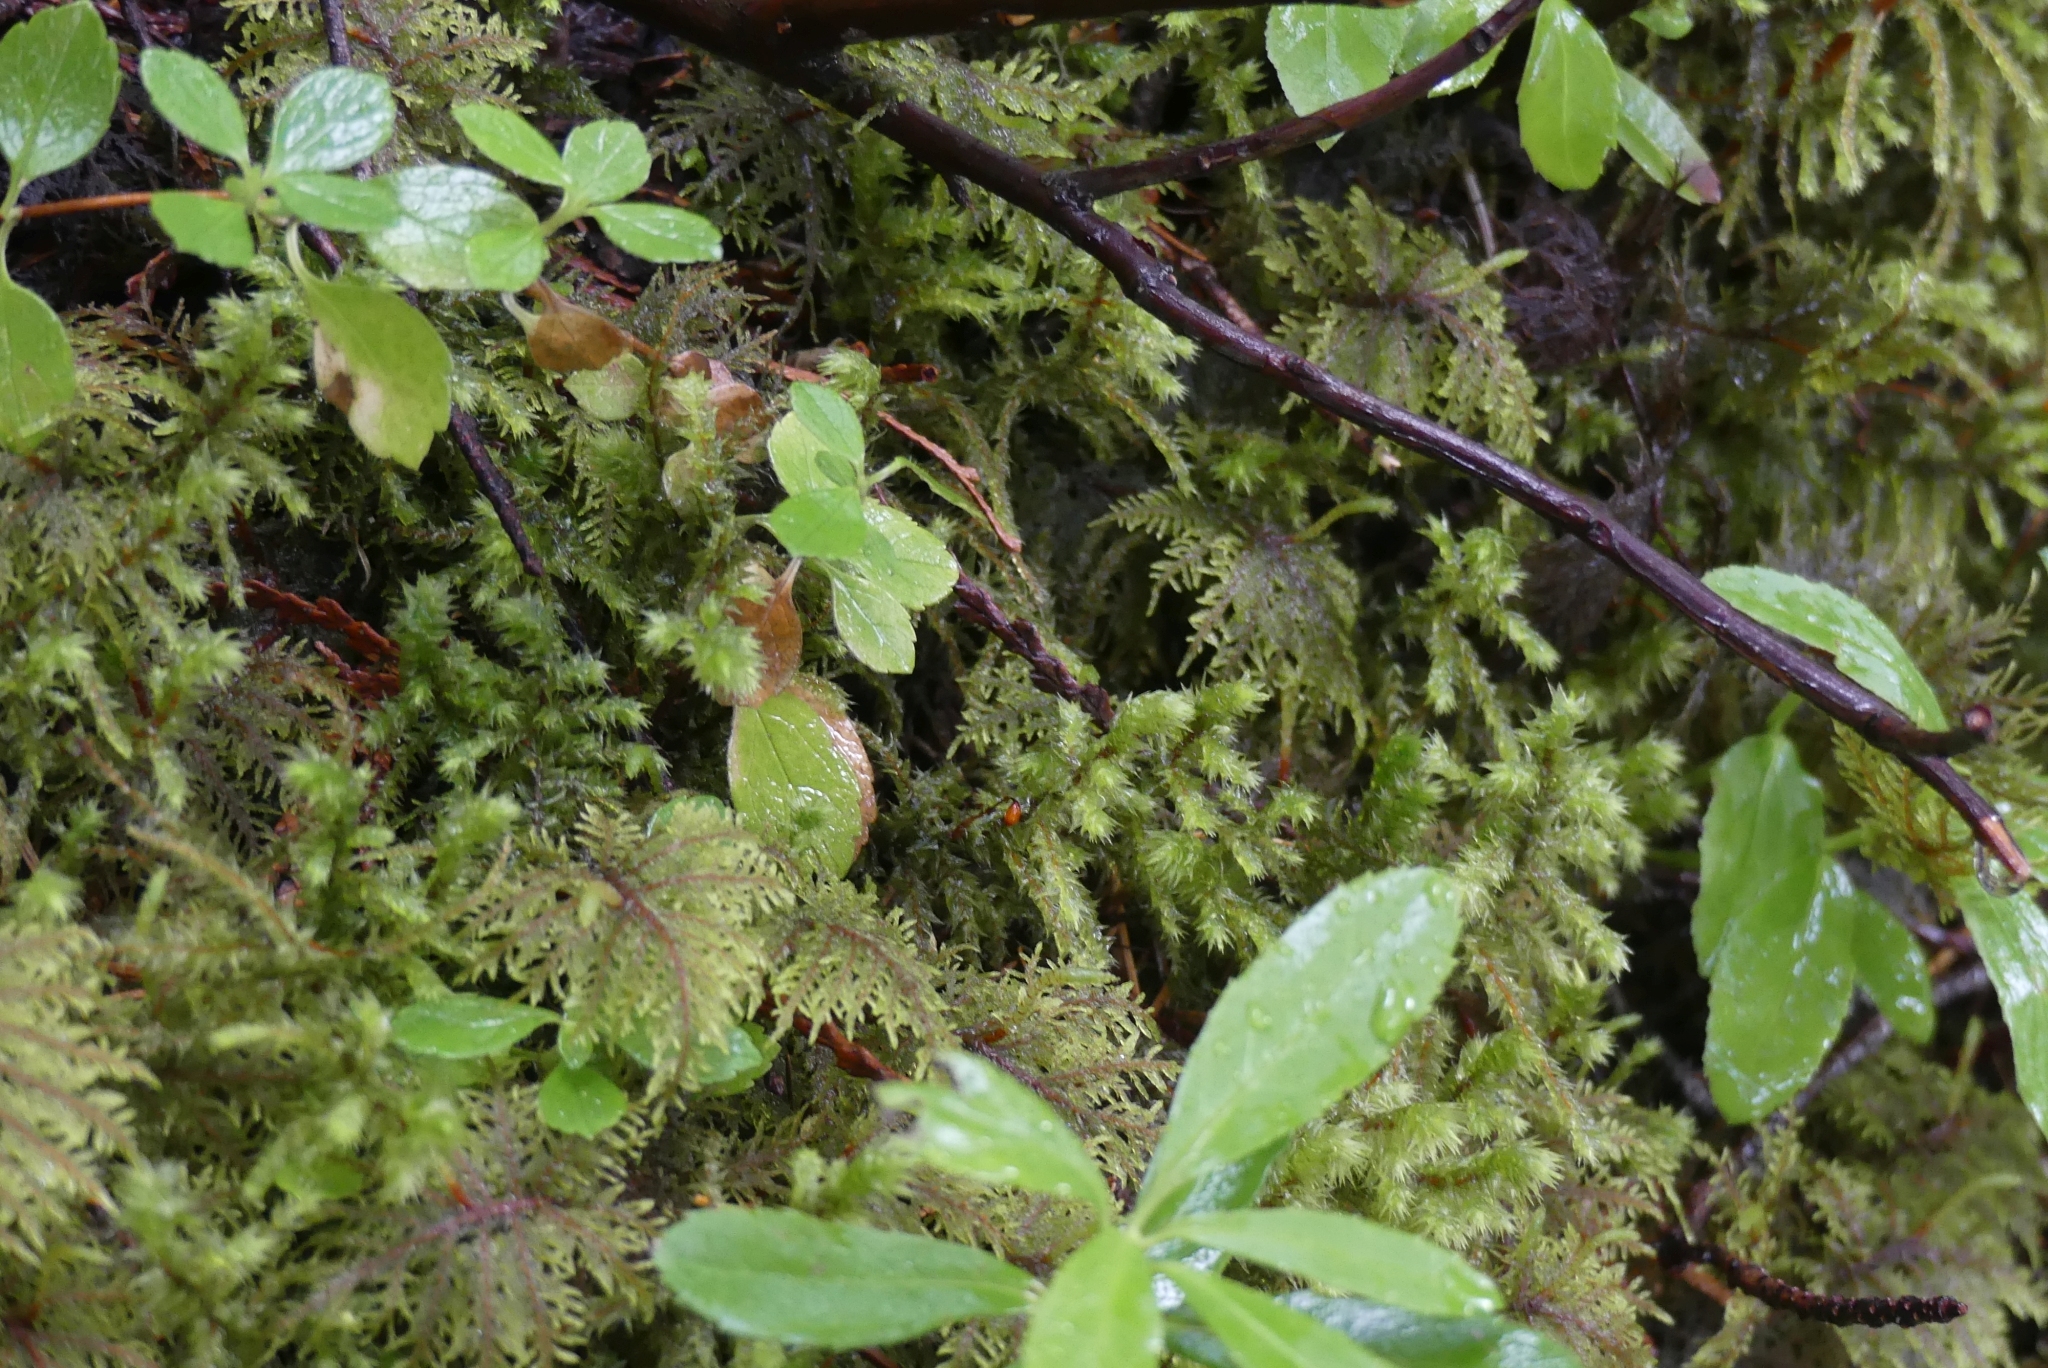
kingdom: Plantae
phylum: Bryophyta
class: Bryopsida
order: Hypnales
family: Hylocomiaceae
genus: Hylocomiadelphus
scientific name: Hylocomiadelphus triquetrus
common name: Rough goose neck moss
